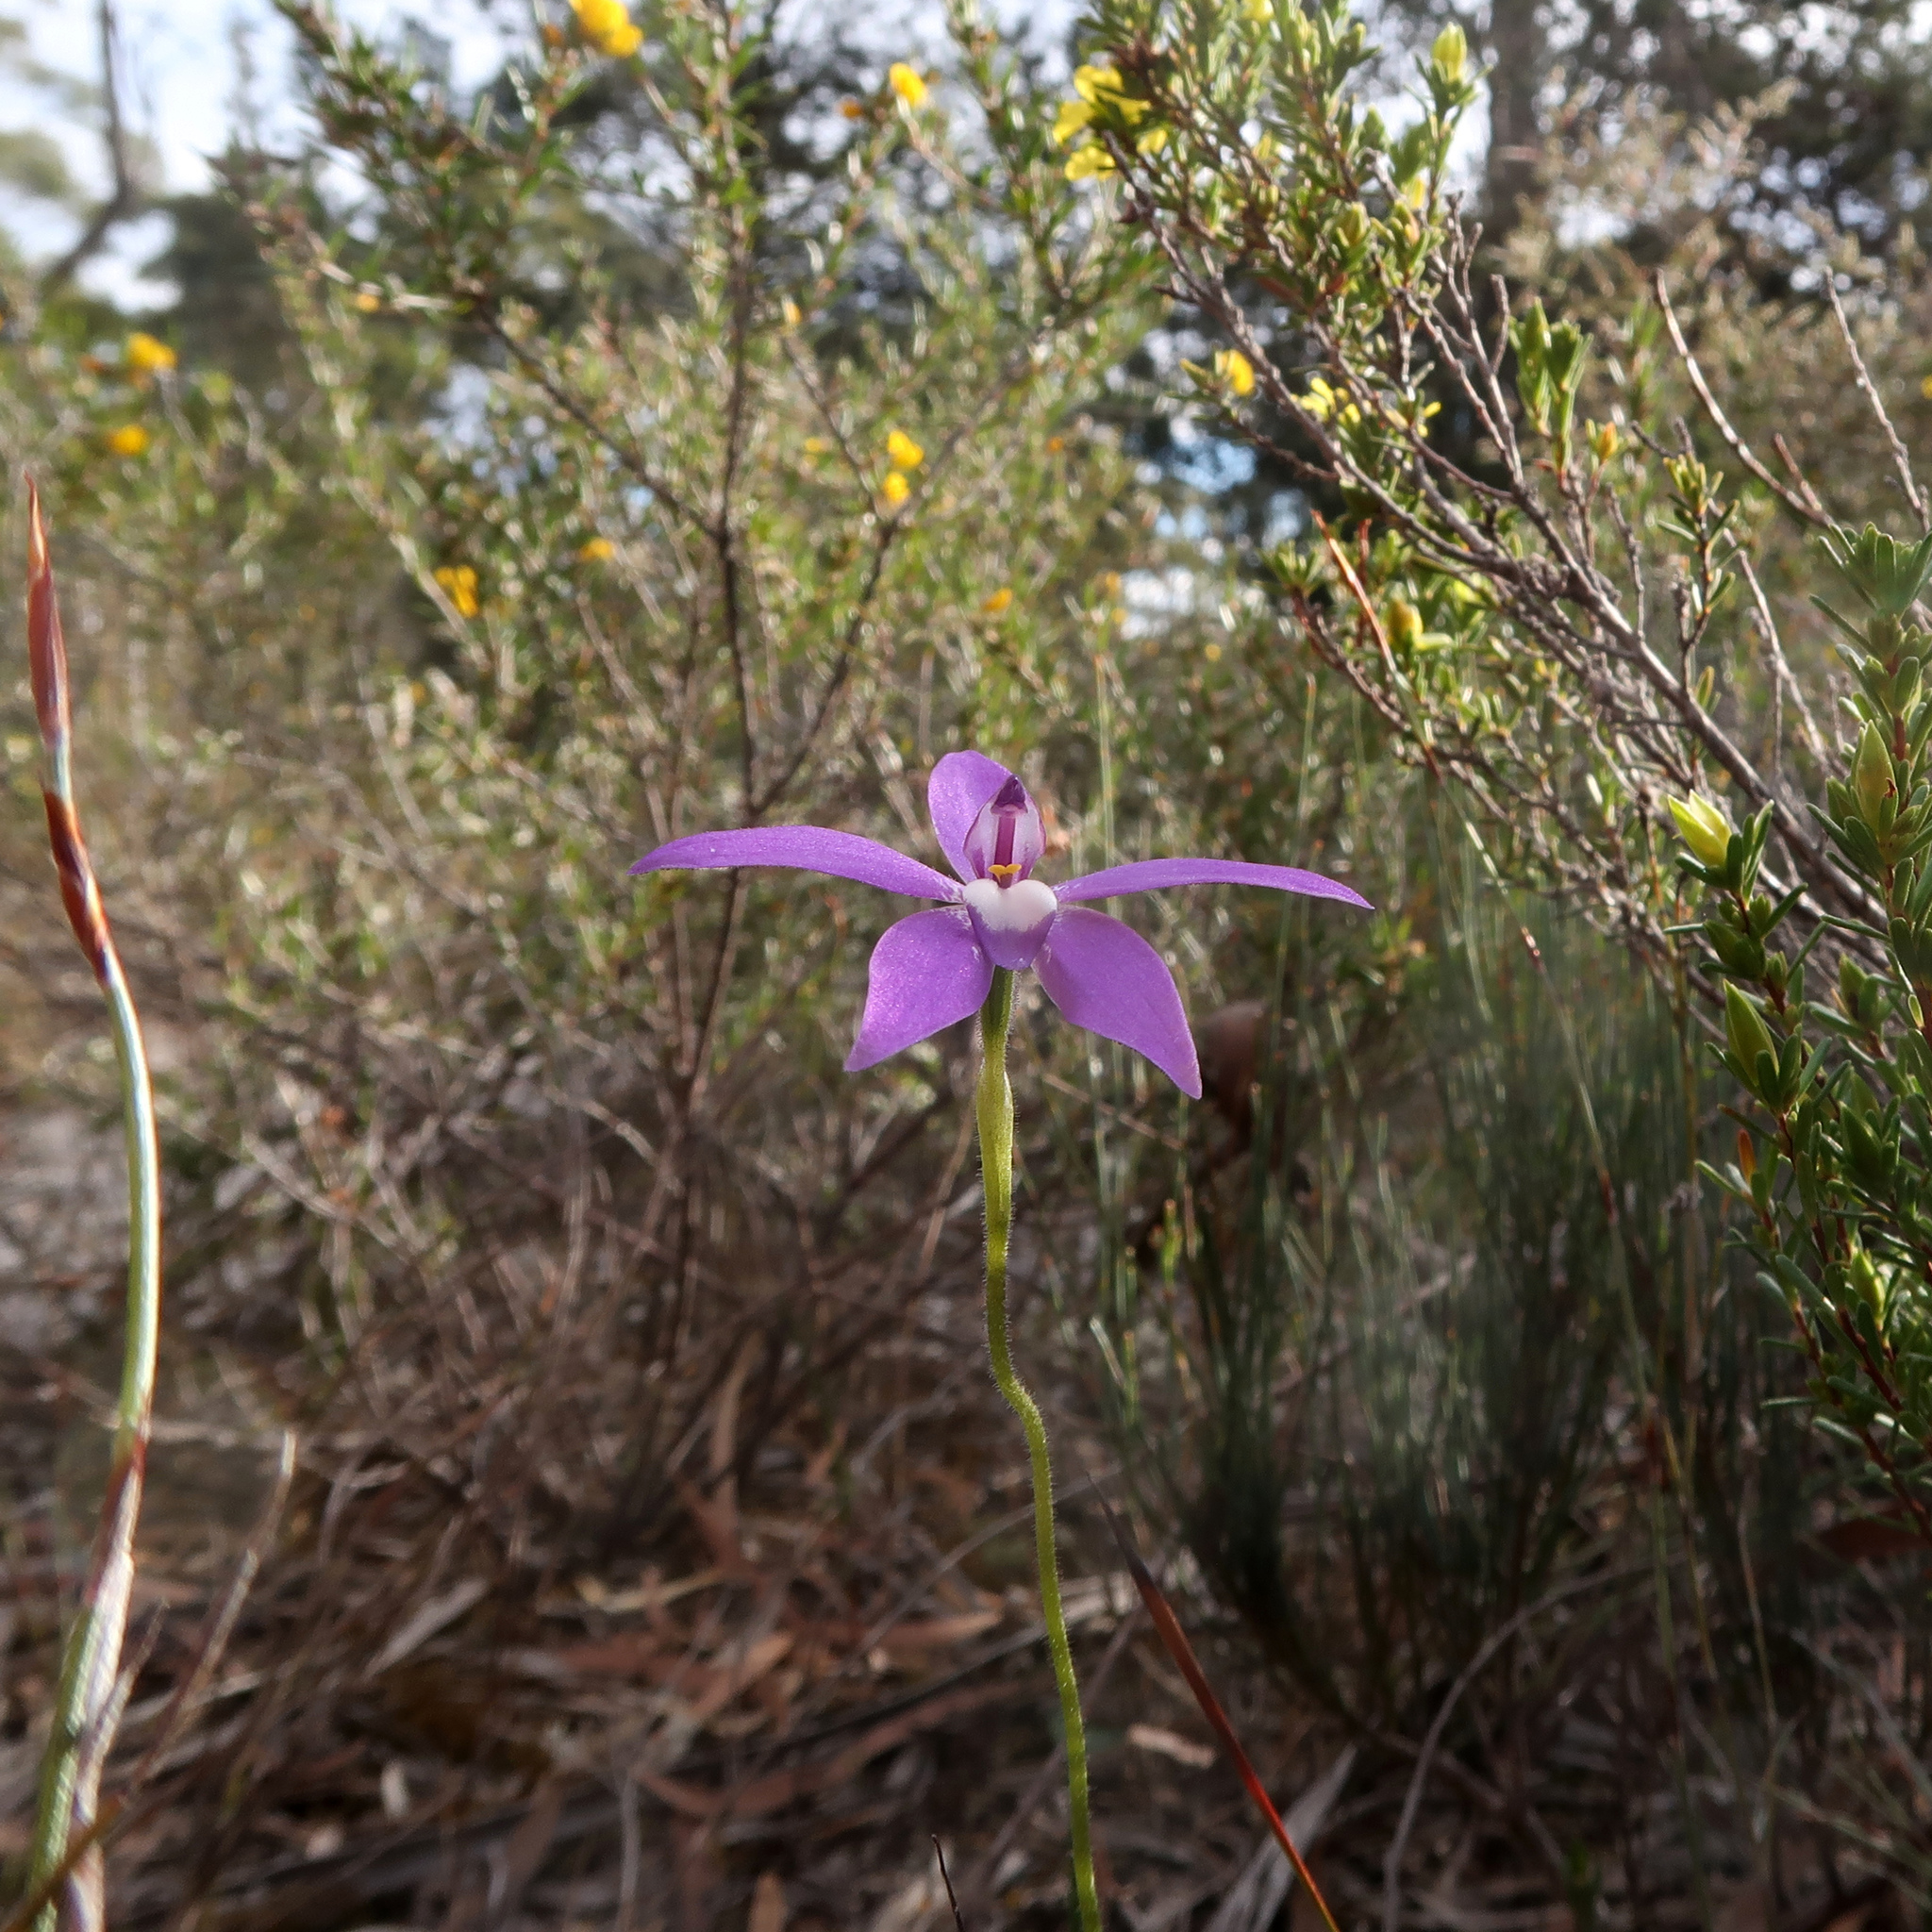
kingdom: Plantae
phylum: Tracheophyta
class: Liliopsida
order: Asparagales
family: Orchidaceae
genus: Caladenia
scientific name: Caladenia major
